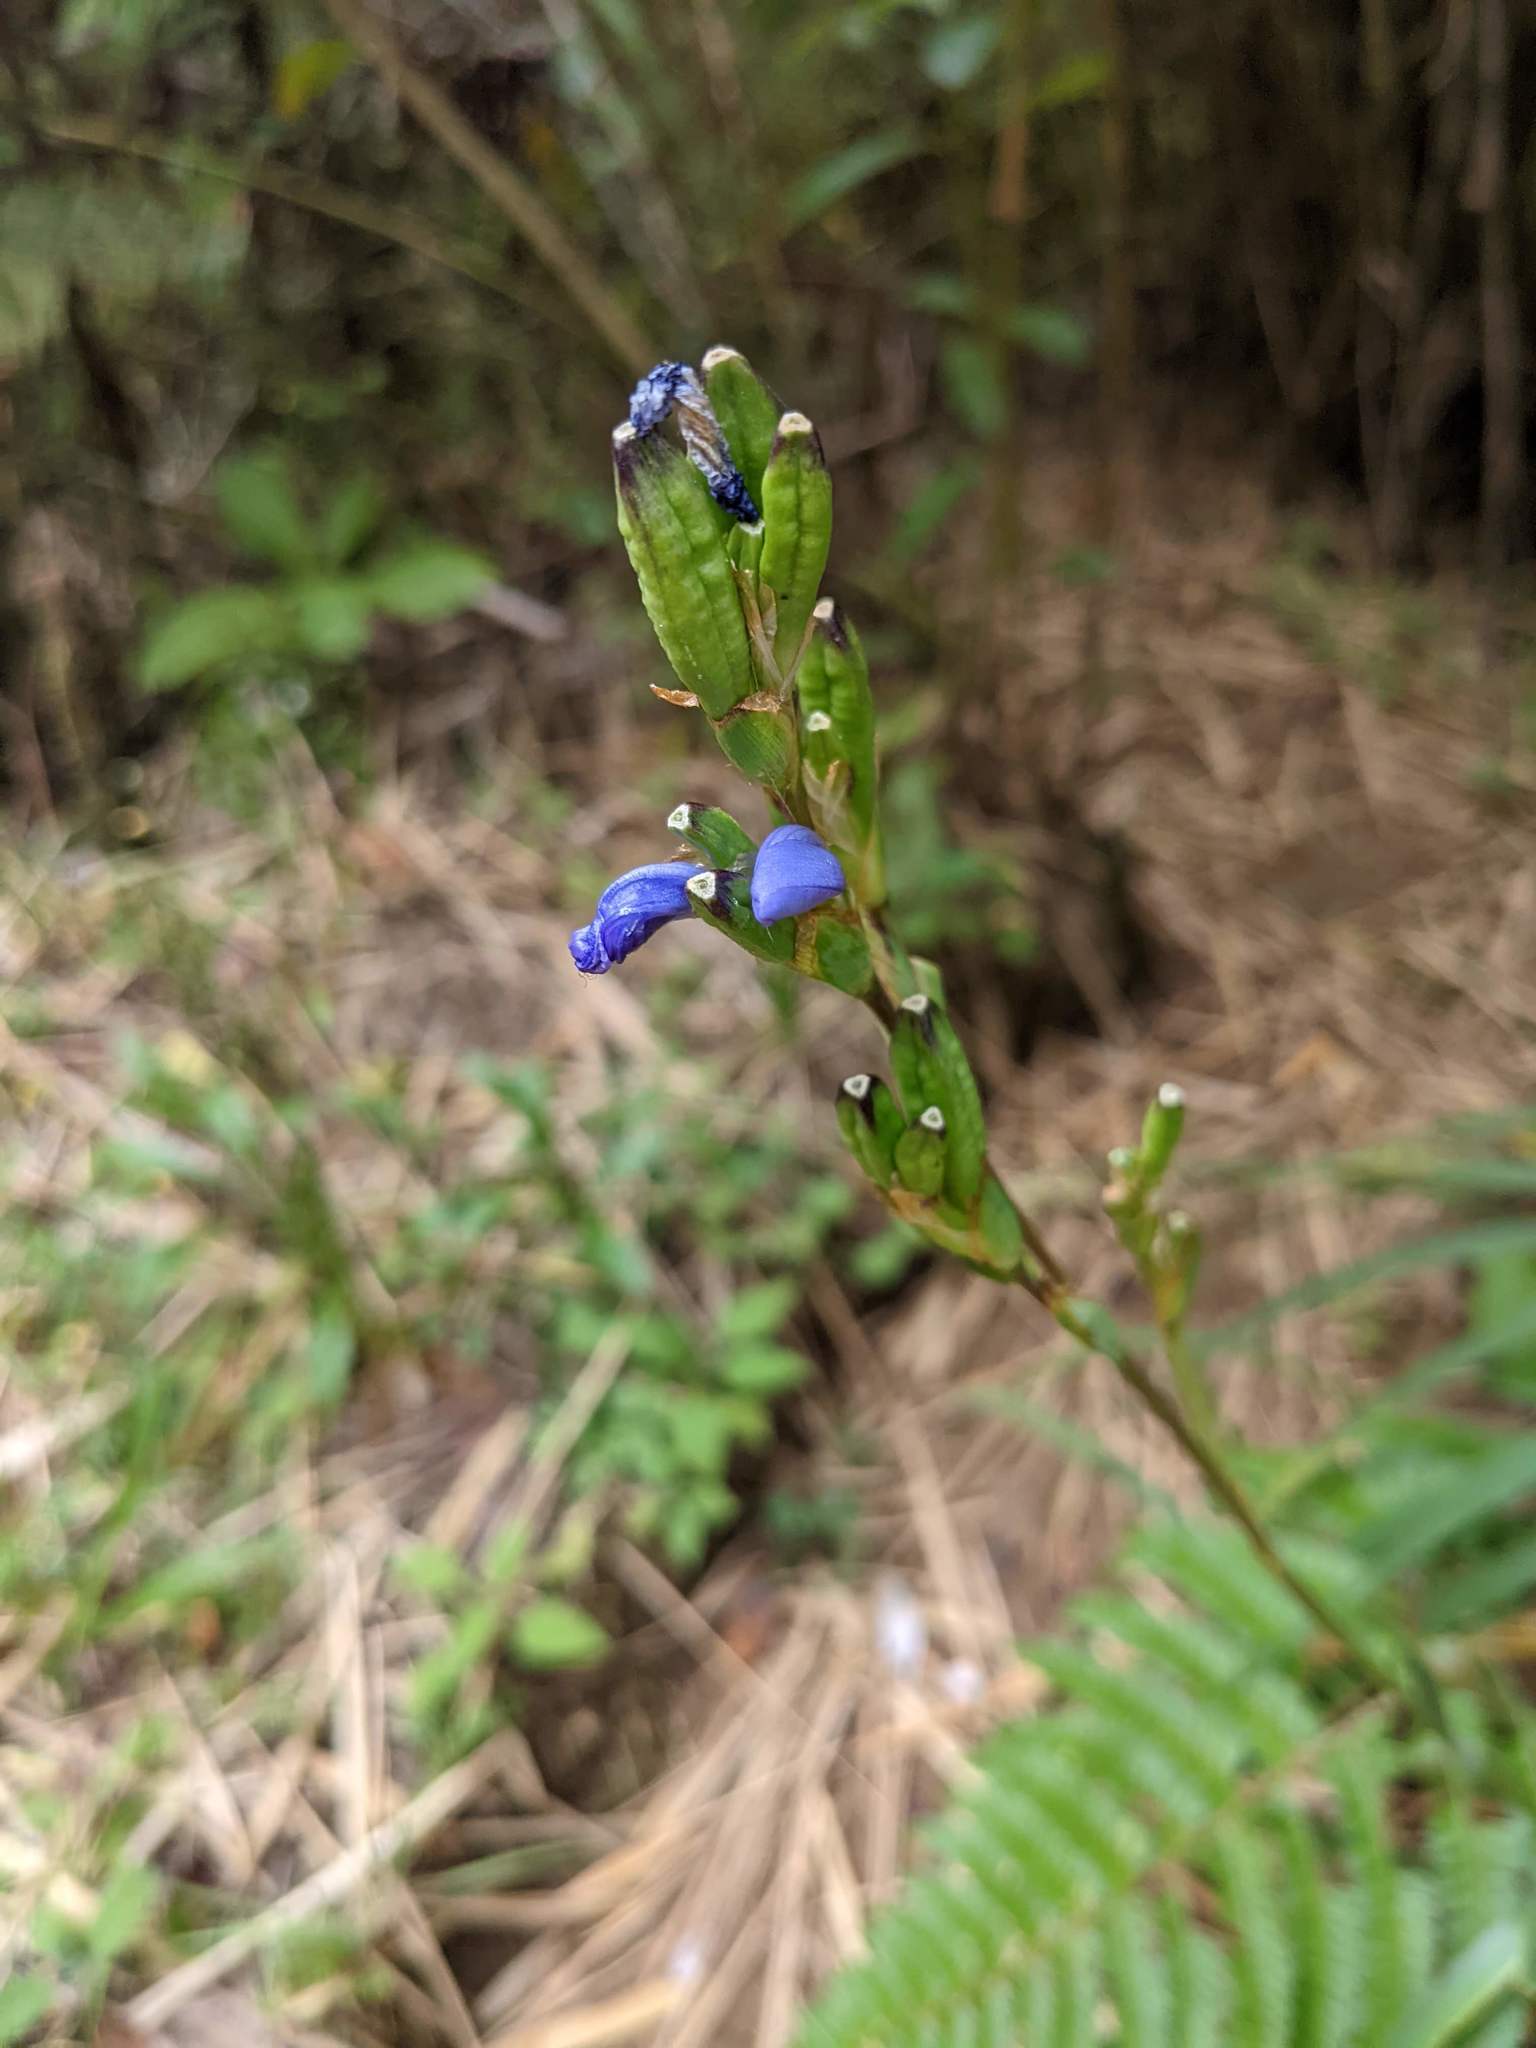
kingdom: Plantae
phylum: Tracheophyta
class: Liliopsida
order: Asparagales
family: Iridaceae
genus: Orthrosanthus
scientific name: Orthrosanthus chimboracensis
